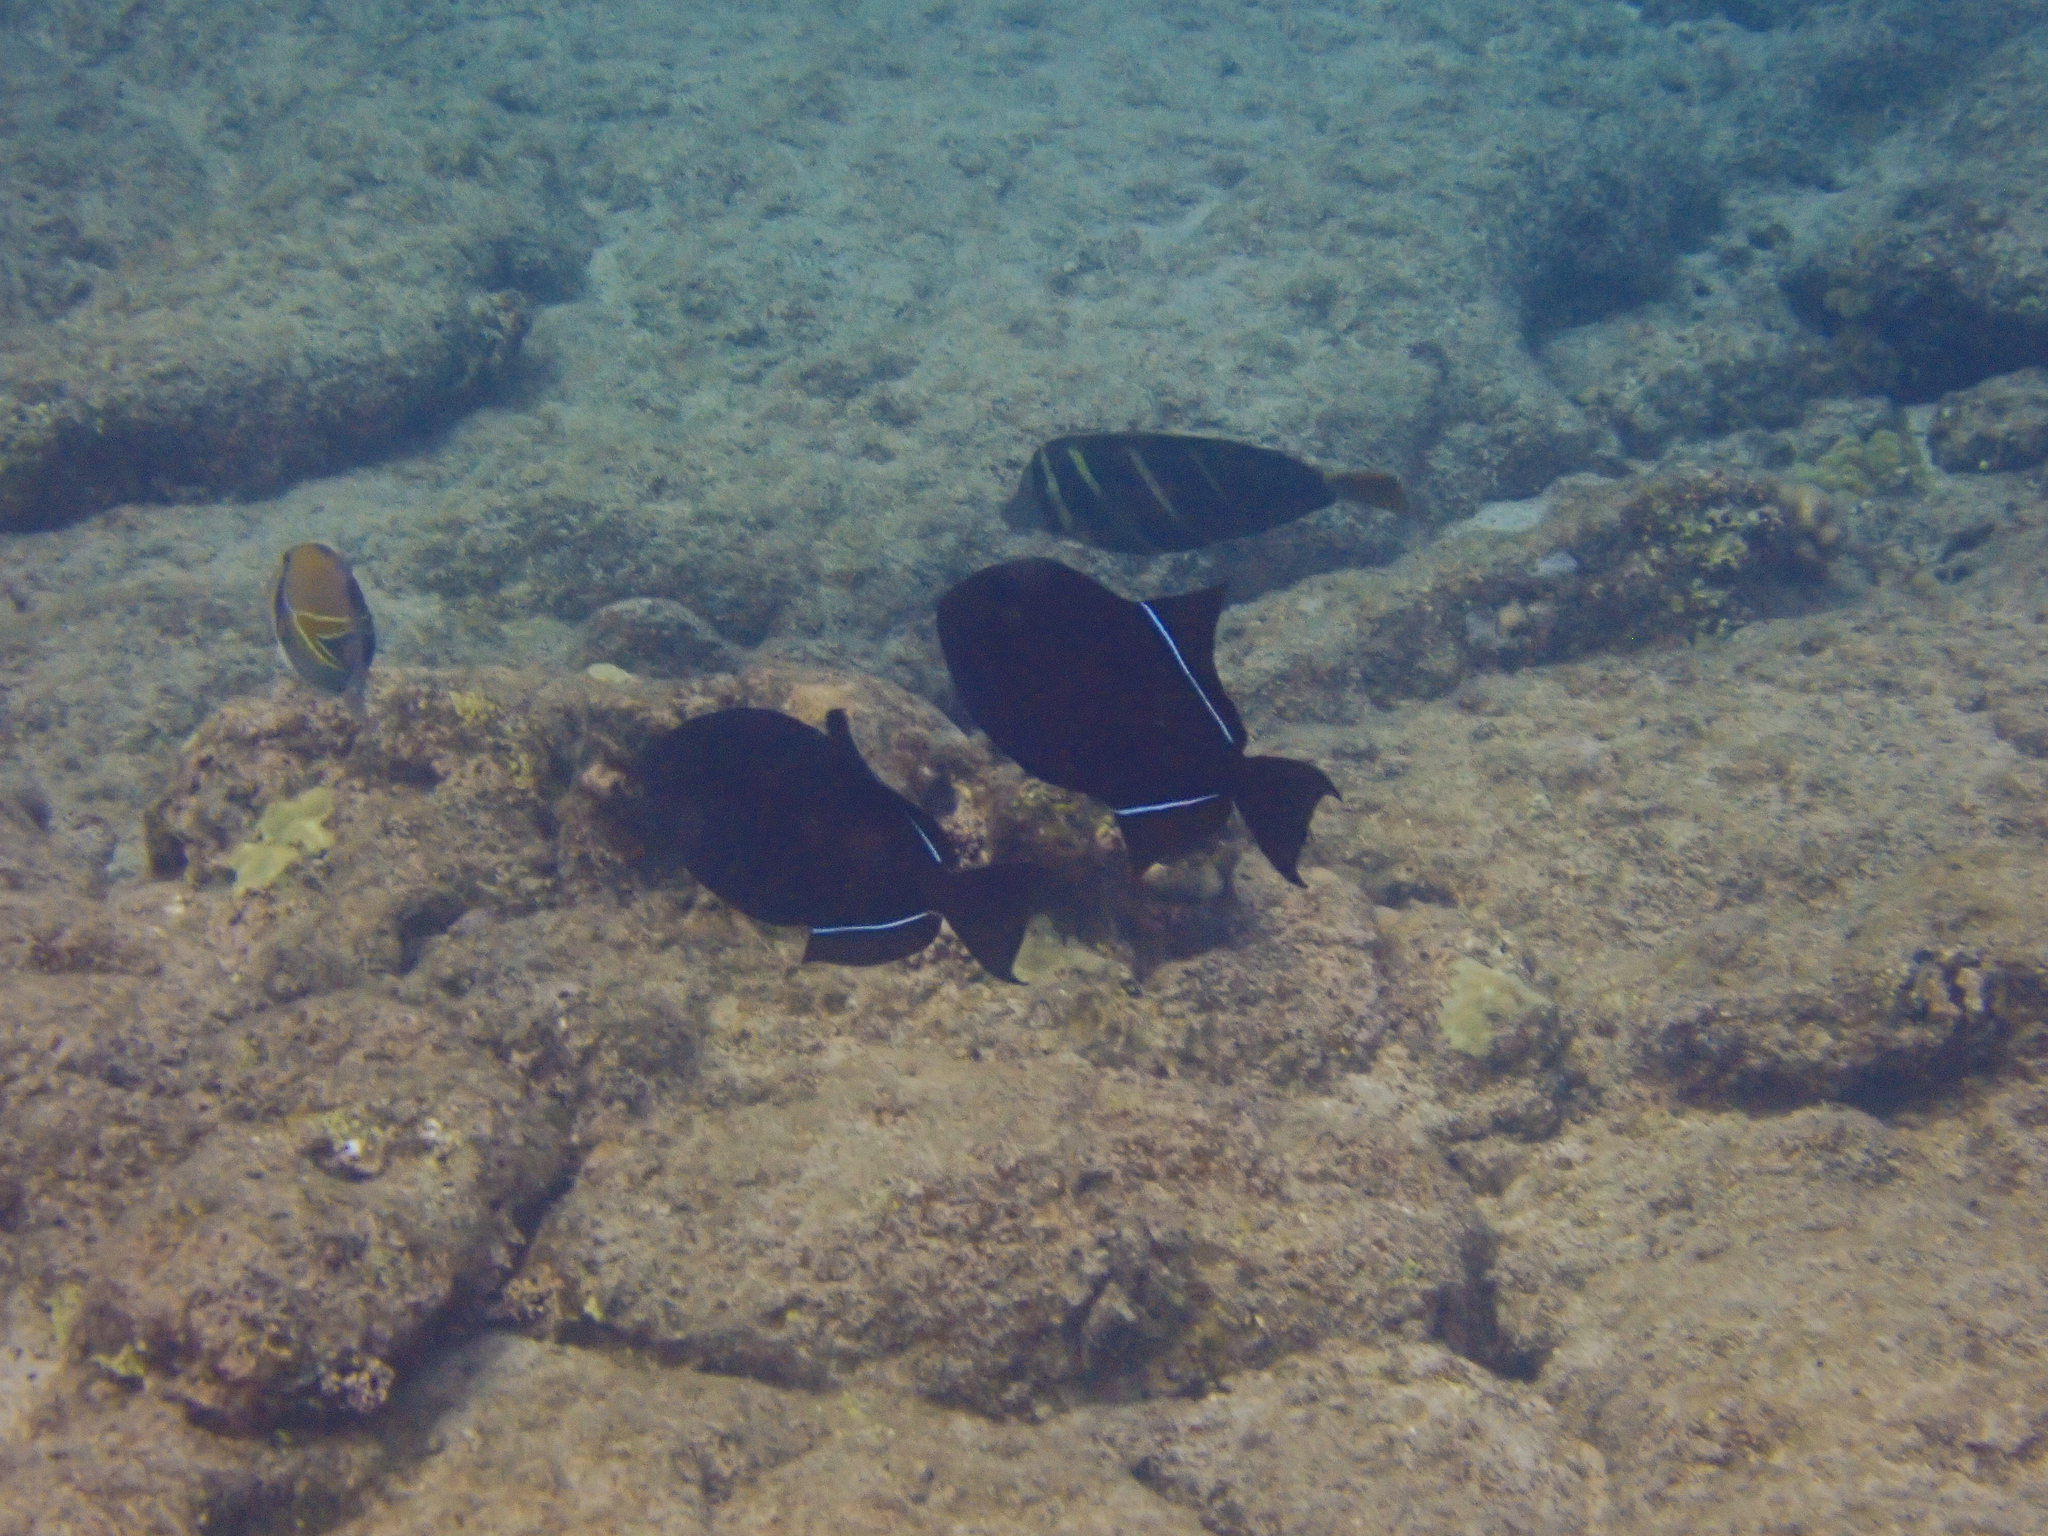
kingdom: Animalia
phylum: Chordata
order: Tetraodontiformes
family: Balistidae
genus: Melichthys
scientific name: Melichthys niger
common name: Black durgon
